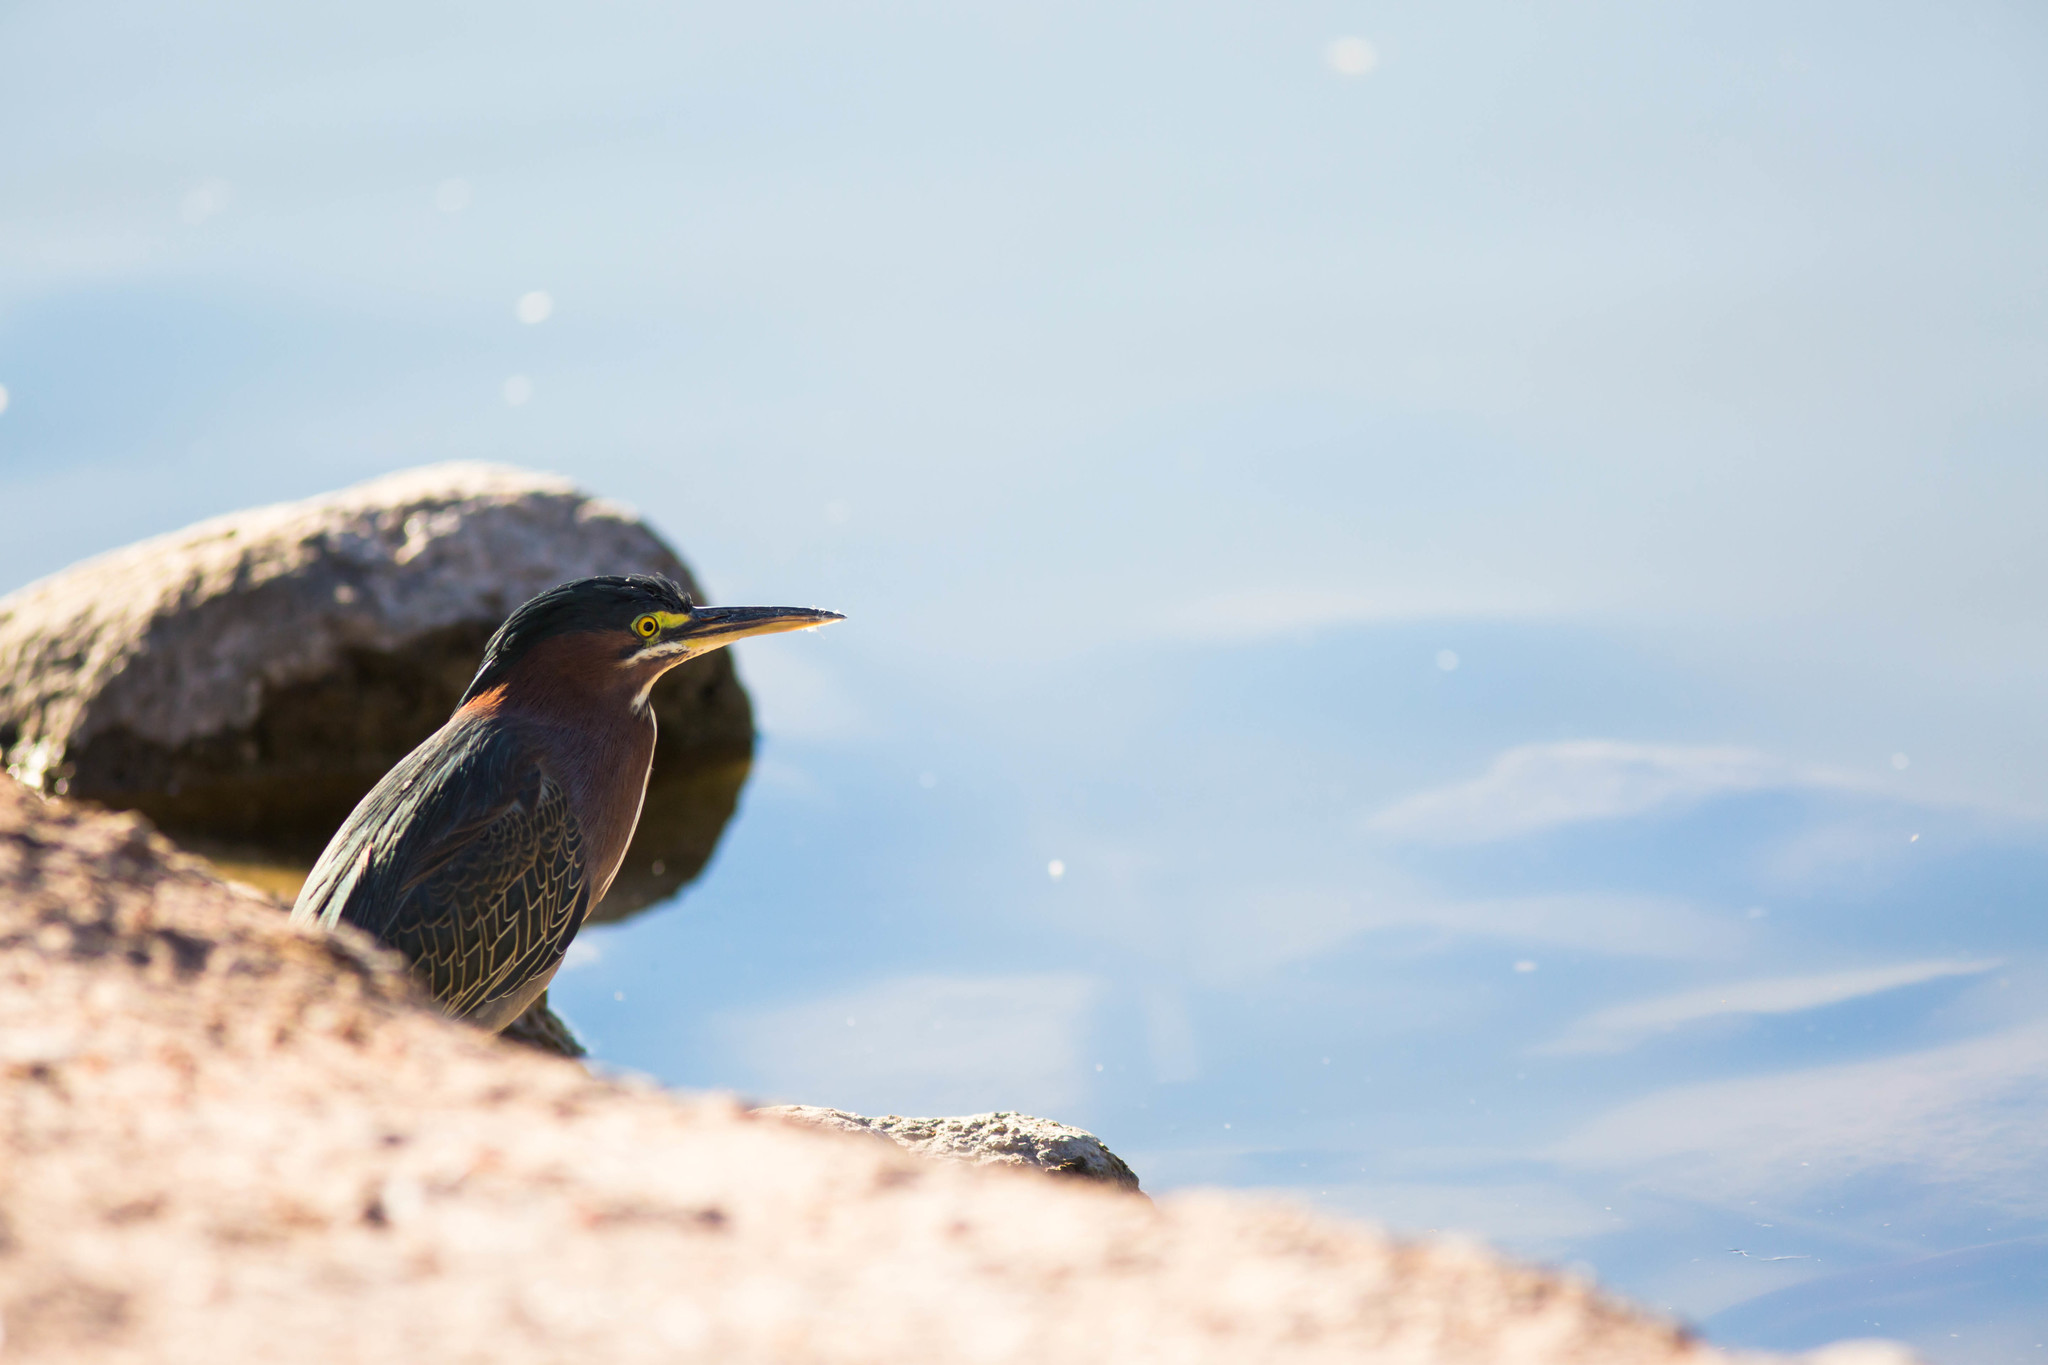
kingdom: Animalia
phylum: Chordata
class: Aves
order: Pelecaniformes
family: Ardeidae
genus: Butorides
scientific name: Butorides virescens
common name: Green heron
